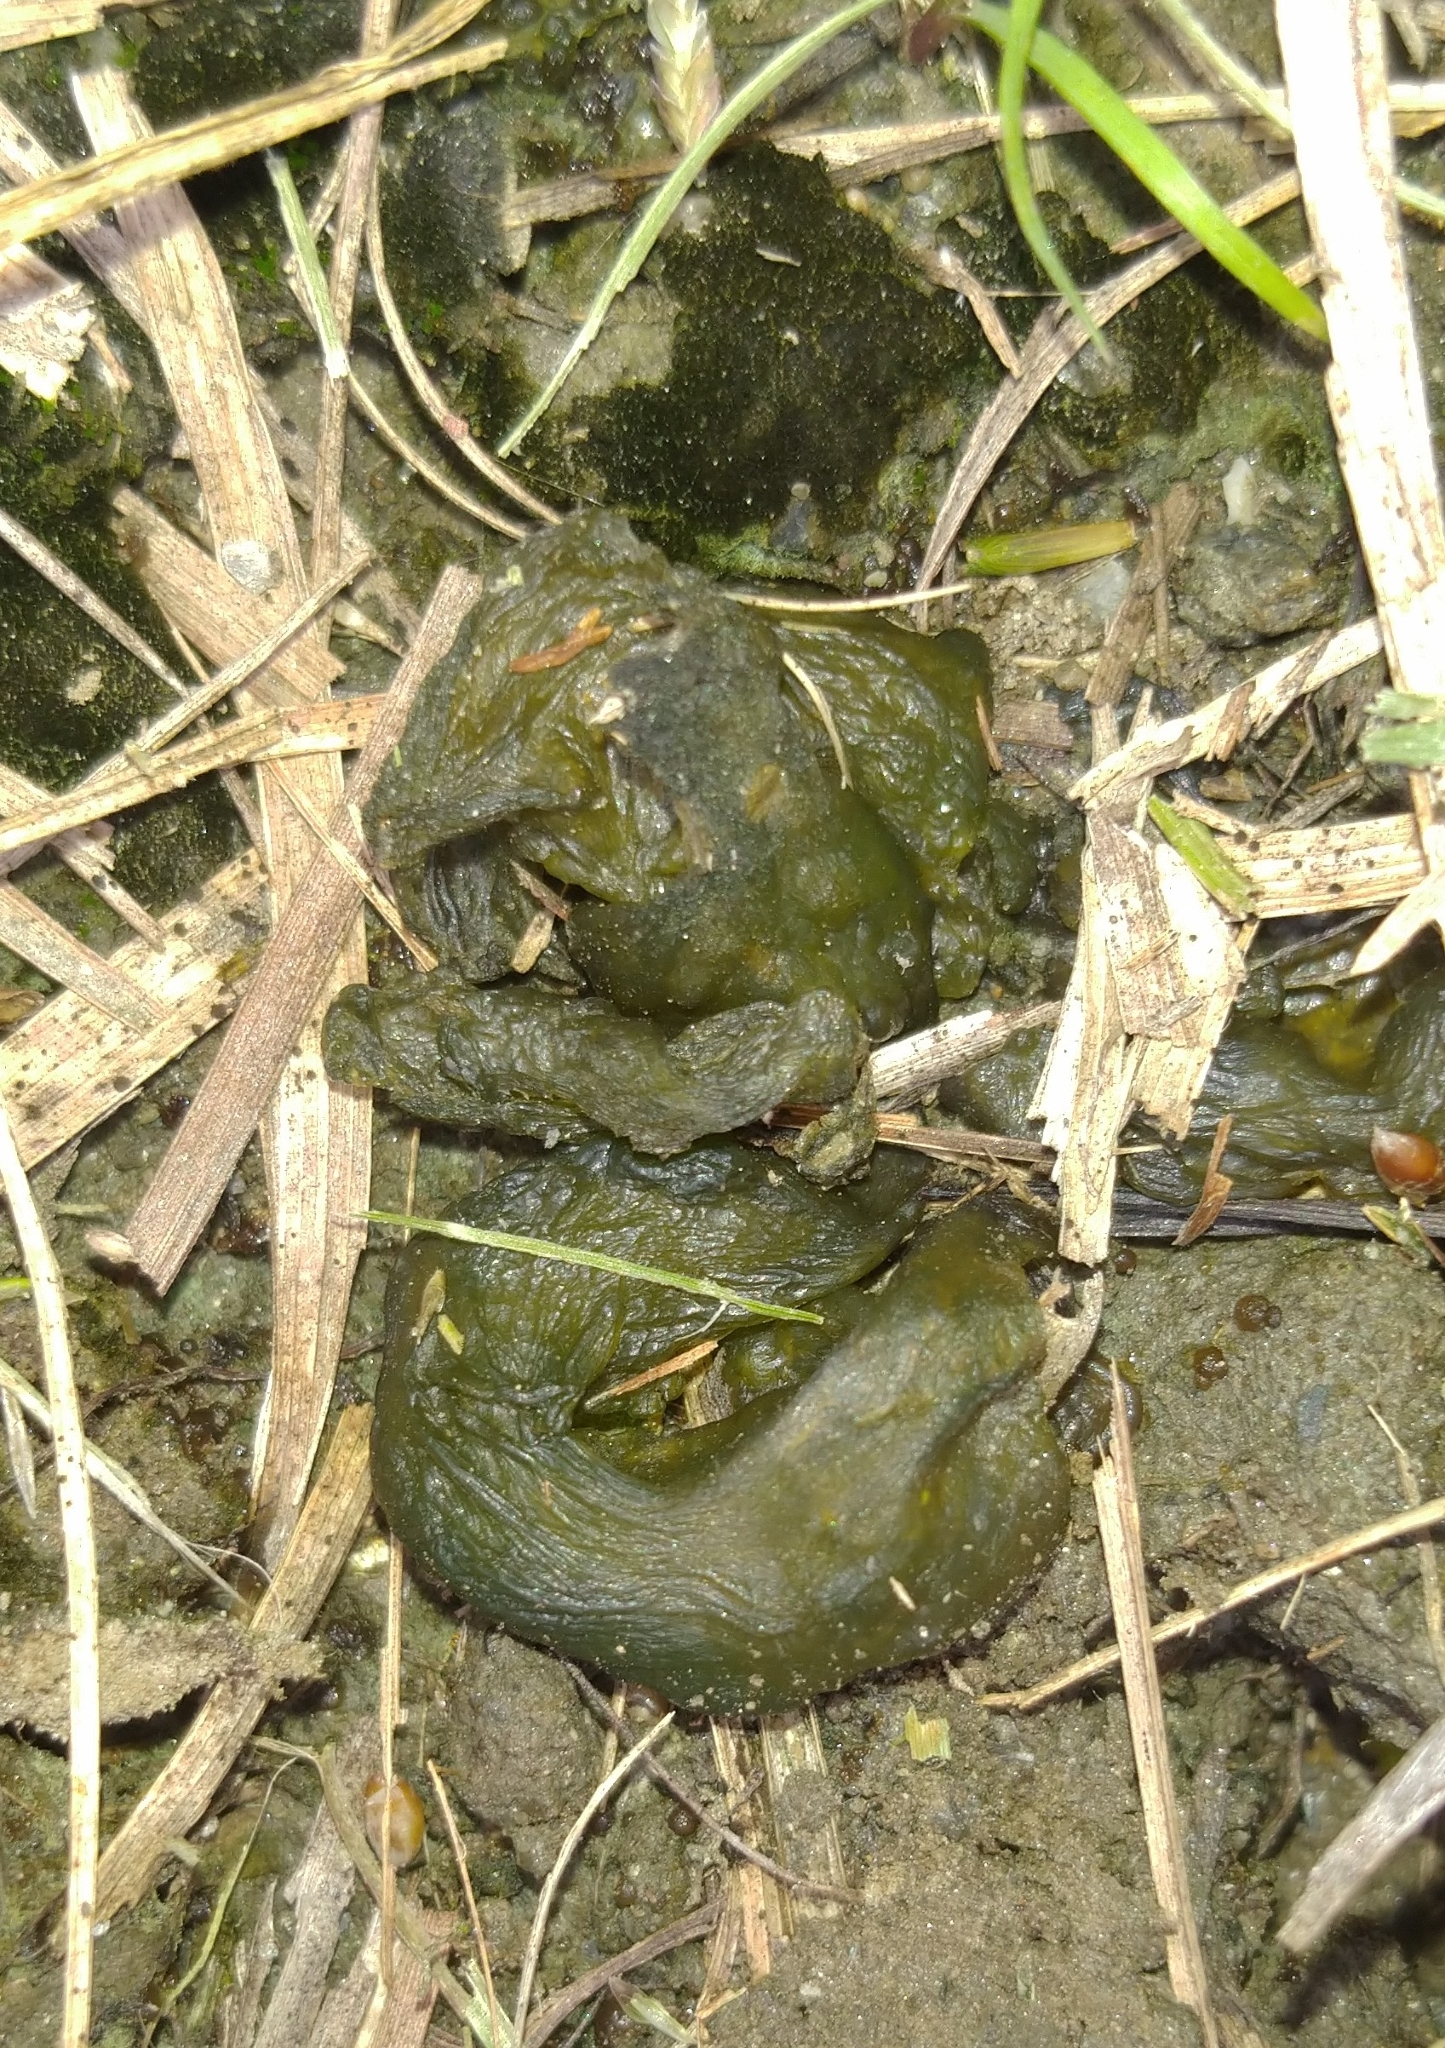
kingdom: Bacteria
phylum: Cyanobacteria
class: Cyanobacteriia
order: Cyanobacteriales
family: Nostocaceae
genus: Nostoc
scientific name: Nostoc commune
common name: Star jelly
